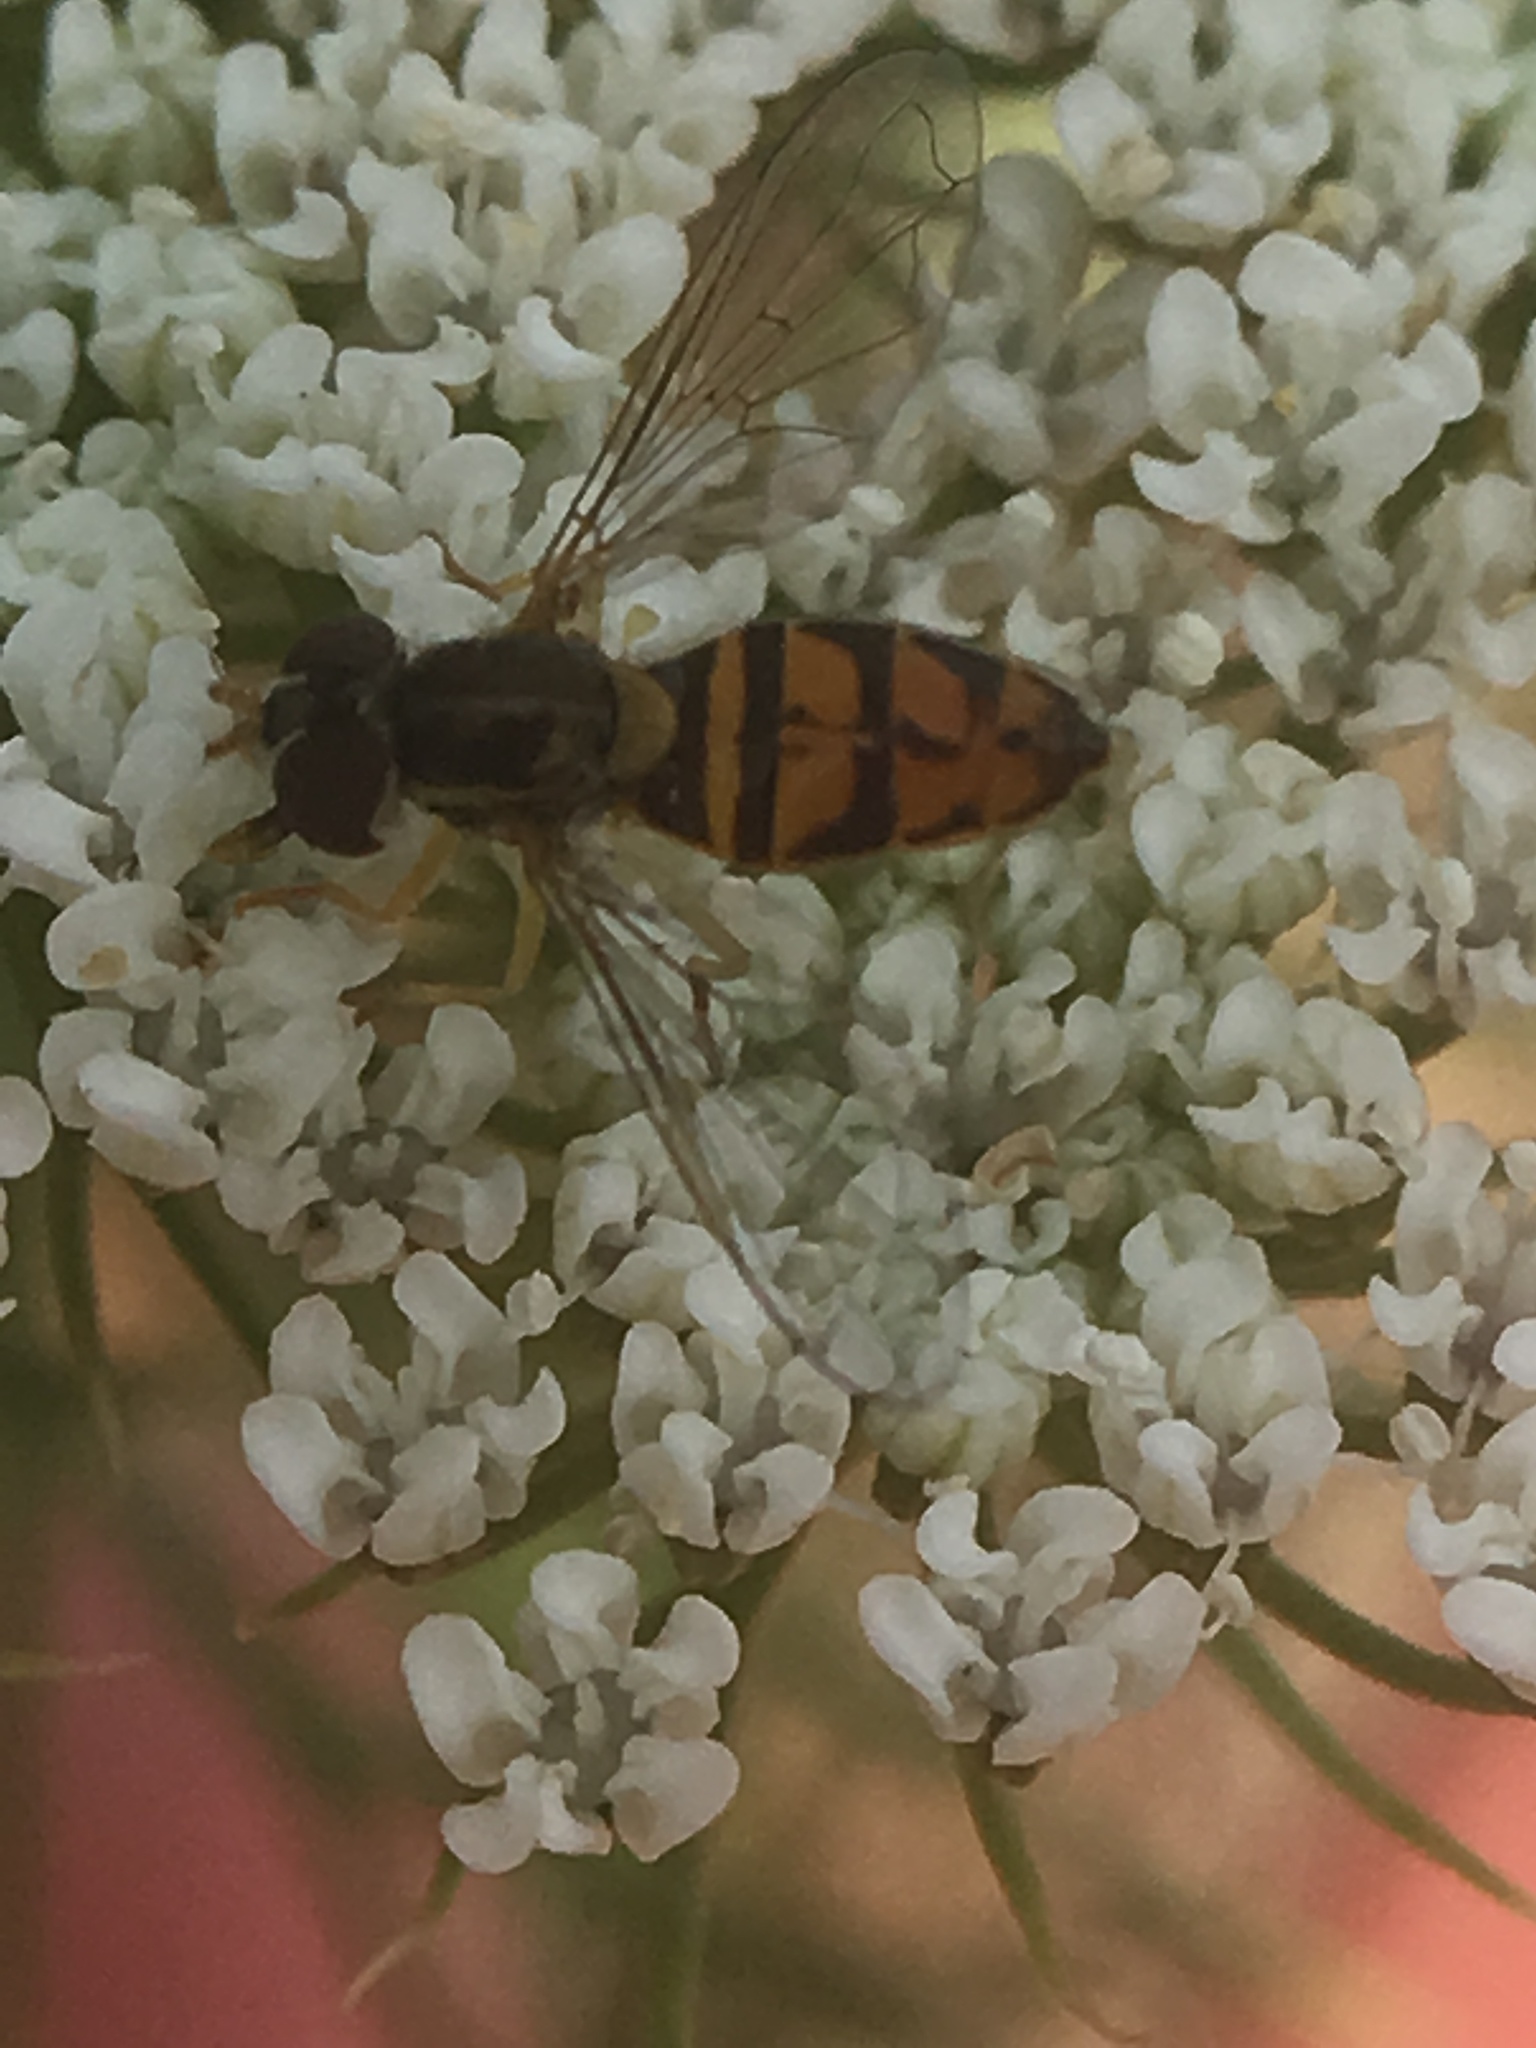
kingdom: Animalia
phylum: Arthropoda
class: Insecta
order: Diptera
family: Syrphidae
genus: Toxomerus
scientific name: Toxomerus marginatus
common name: Syrphid fly
